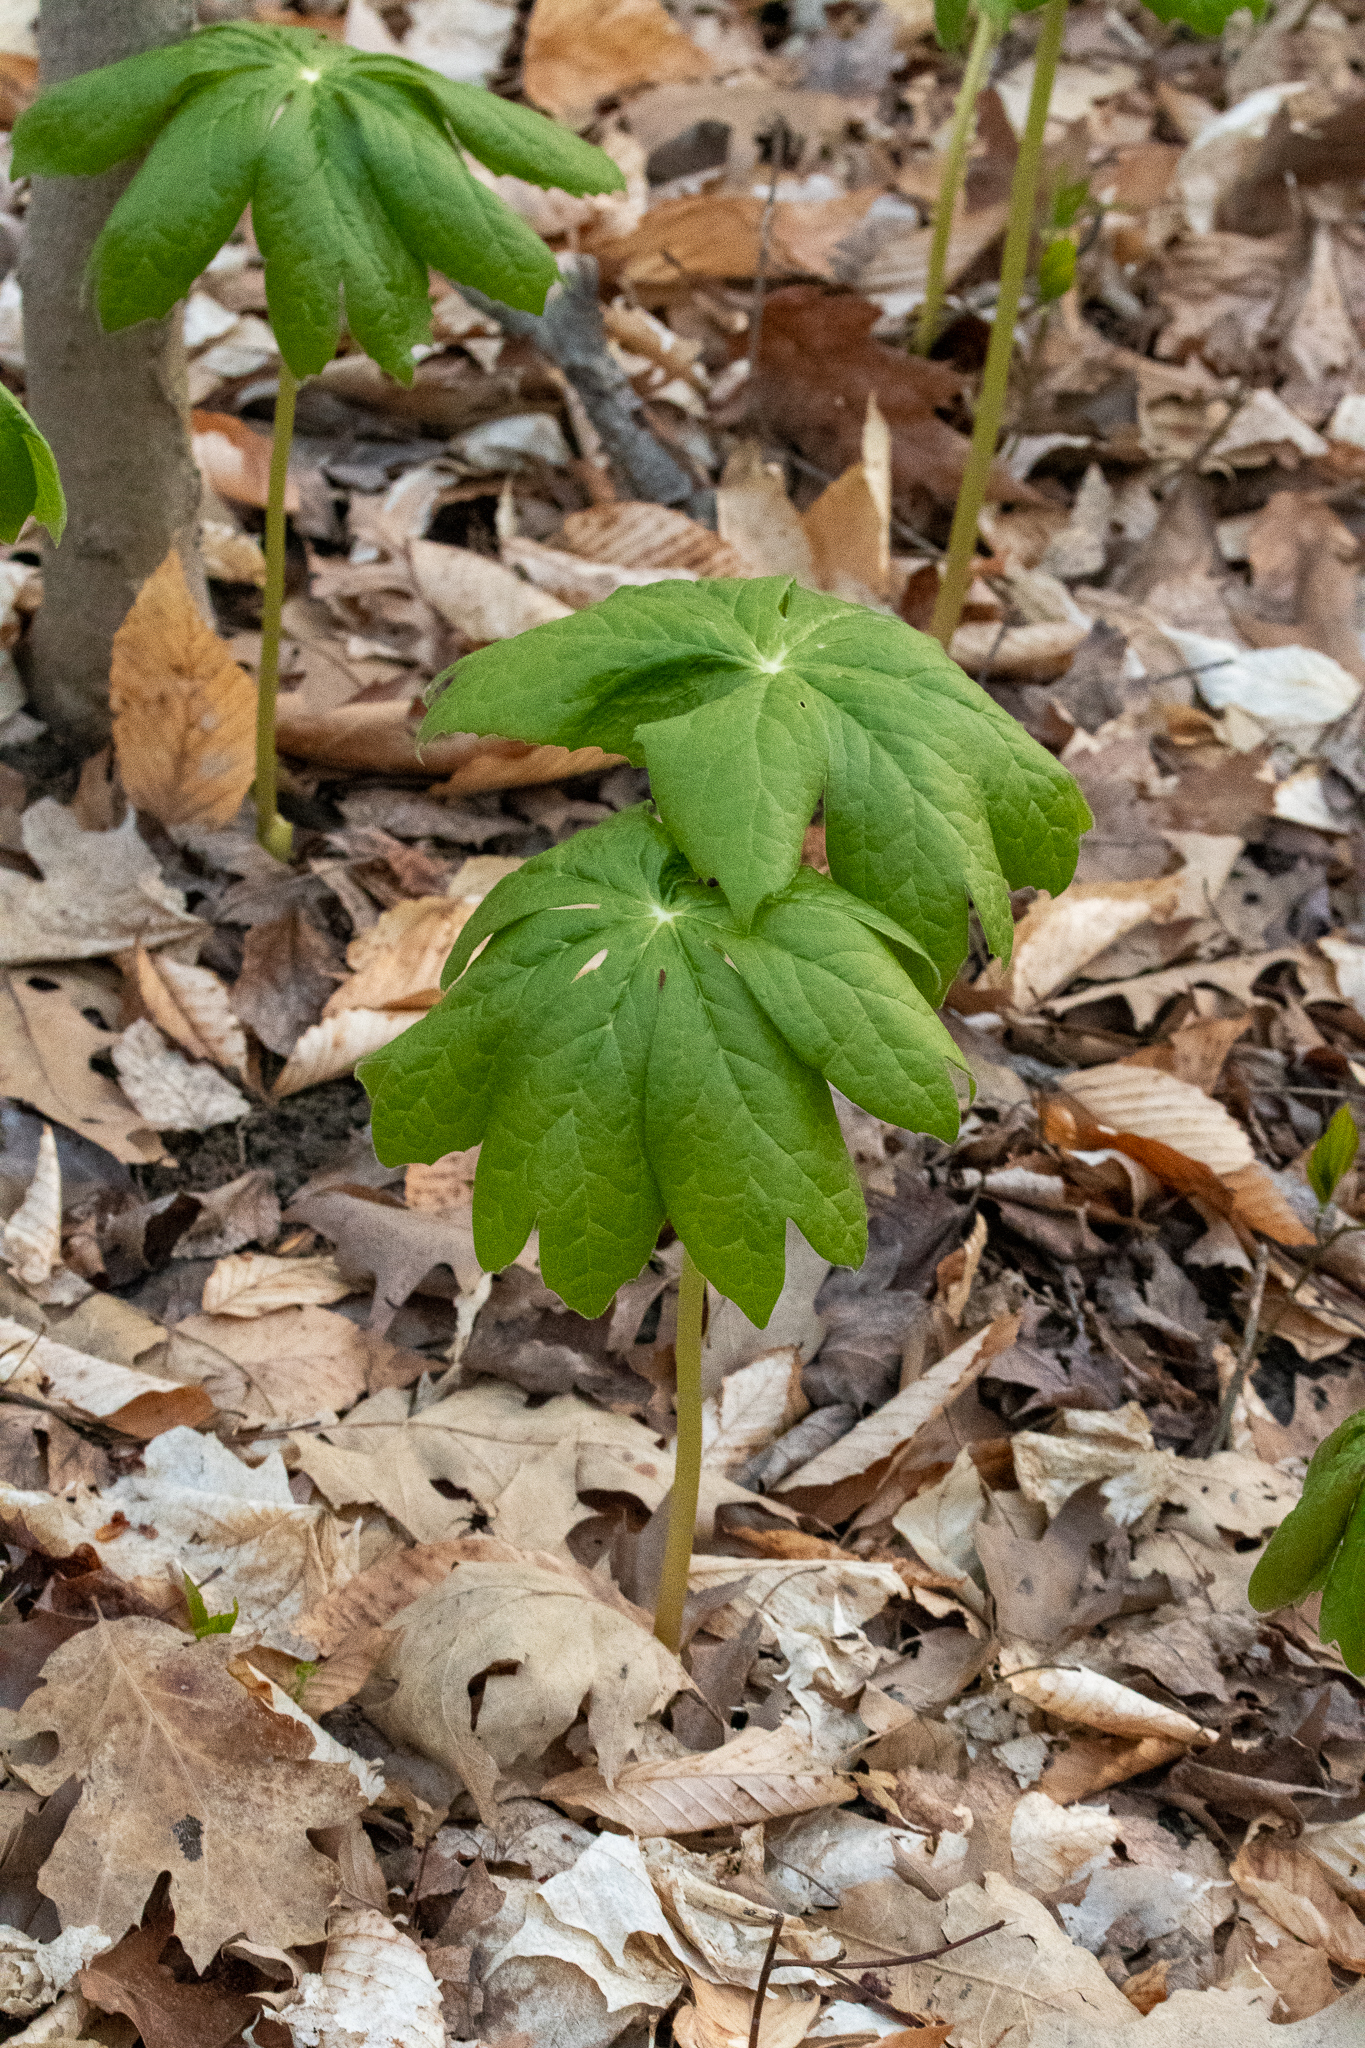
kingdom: Plantae
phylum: Tracheophyta
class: Magnoliopsida
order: Ranunculales
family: Berberidaceae
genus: Podophyllum
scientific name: Podophyllum peltatum
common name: Wild mandrake
